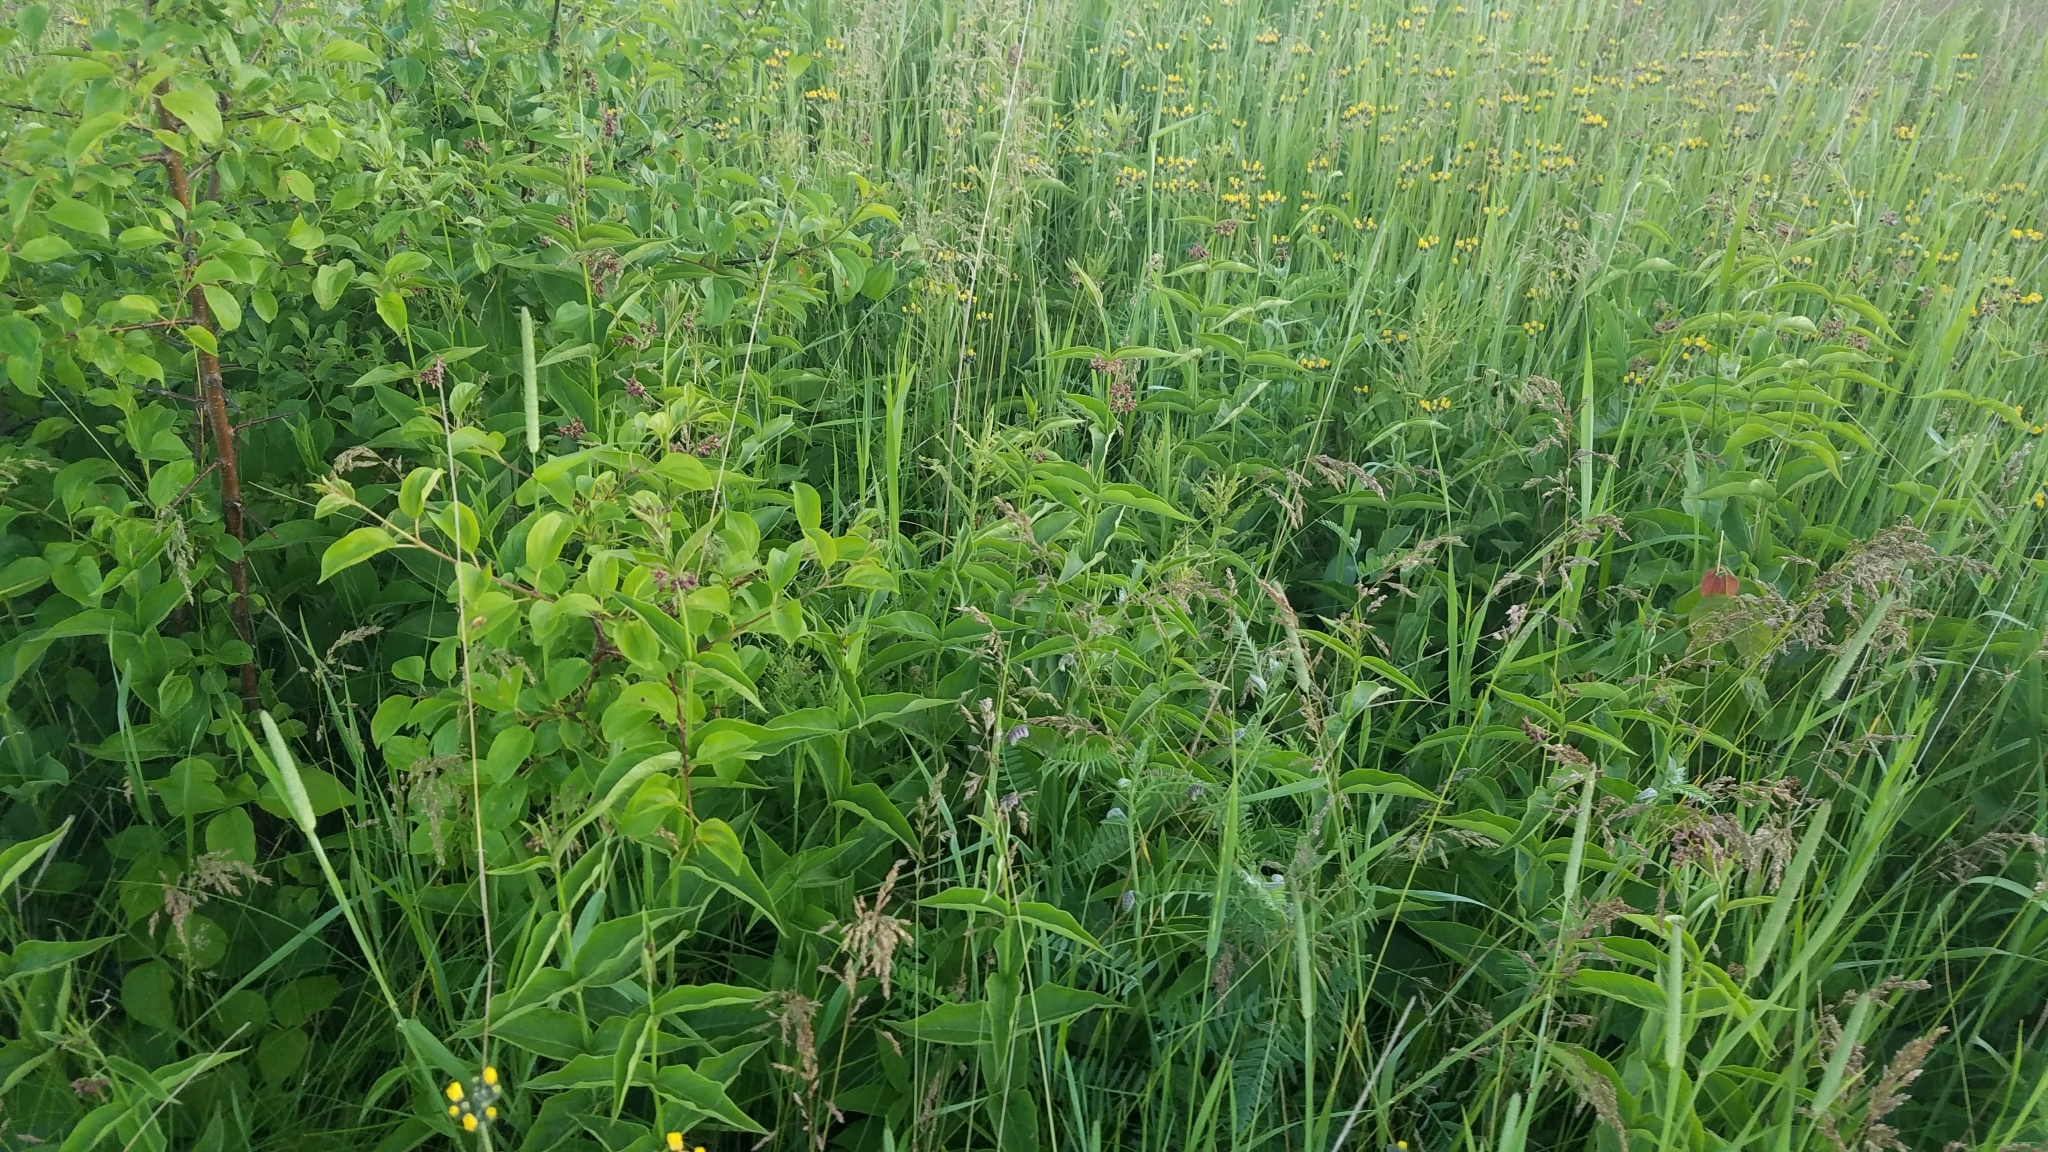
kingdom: Plantae
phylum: Tracheophyta
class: Magnoliopsida
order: Gentianales
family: Apocynaceae
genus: Vincetoxicum
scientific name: Vincetoxicum rossicum
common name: Dog-strangling vine
